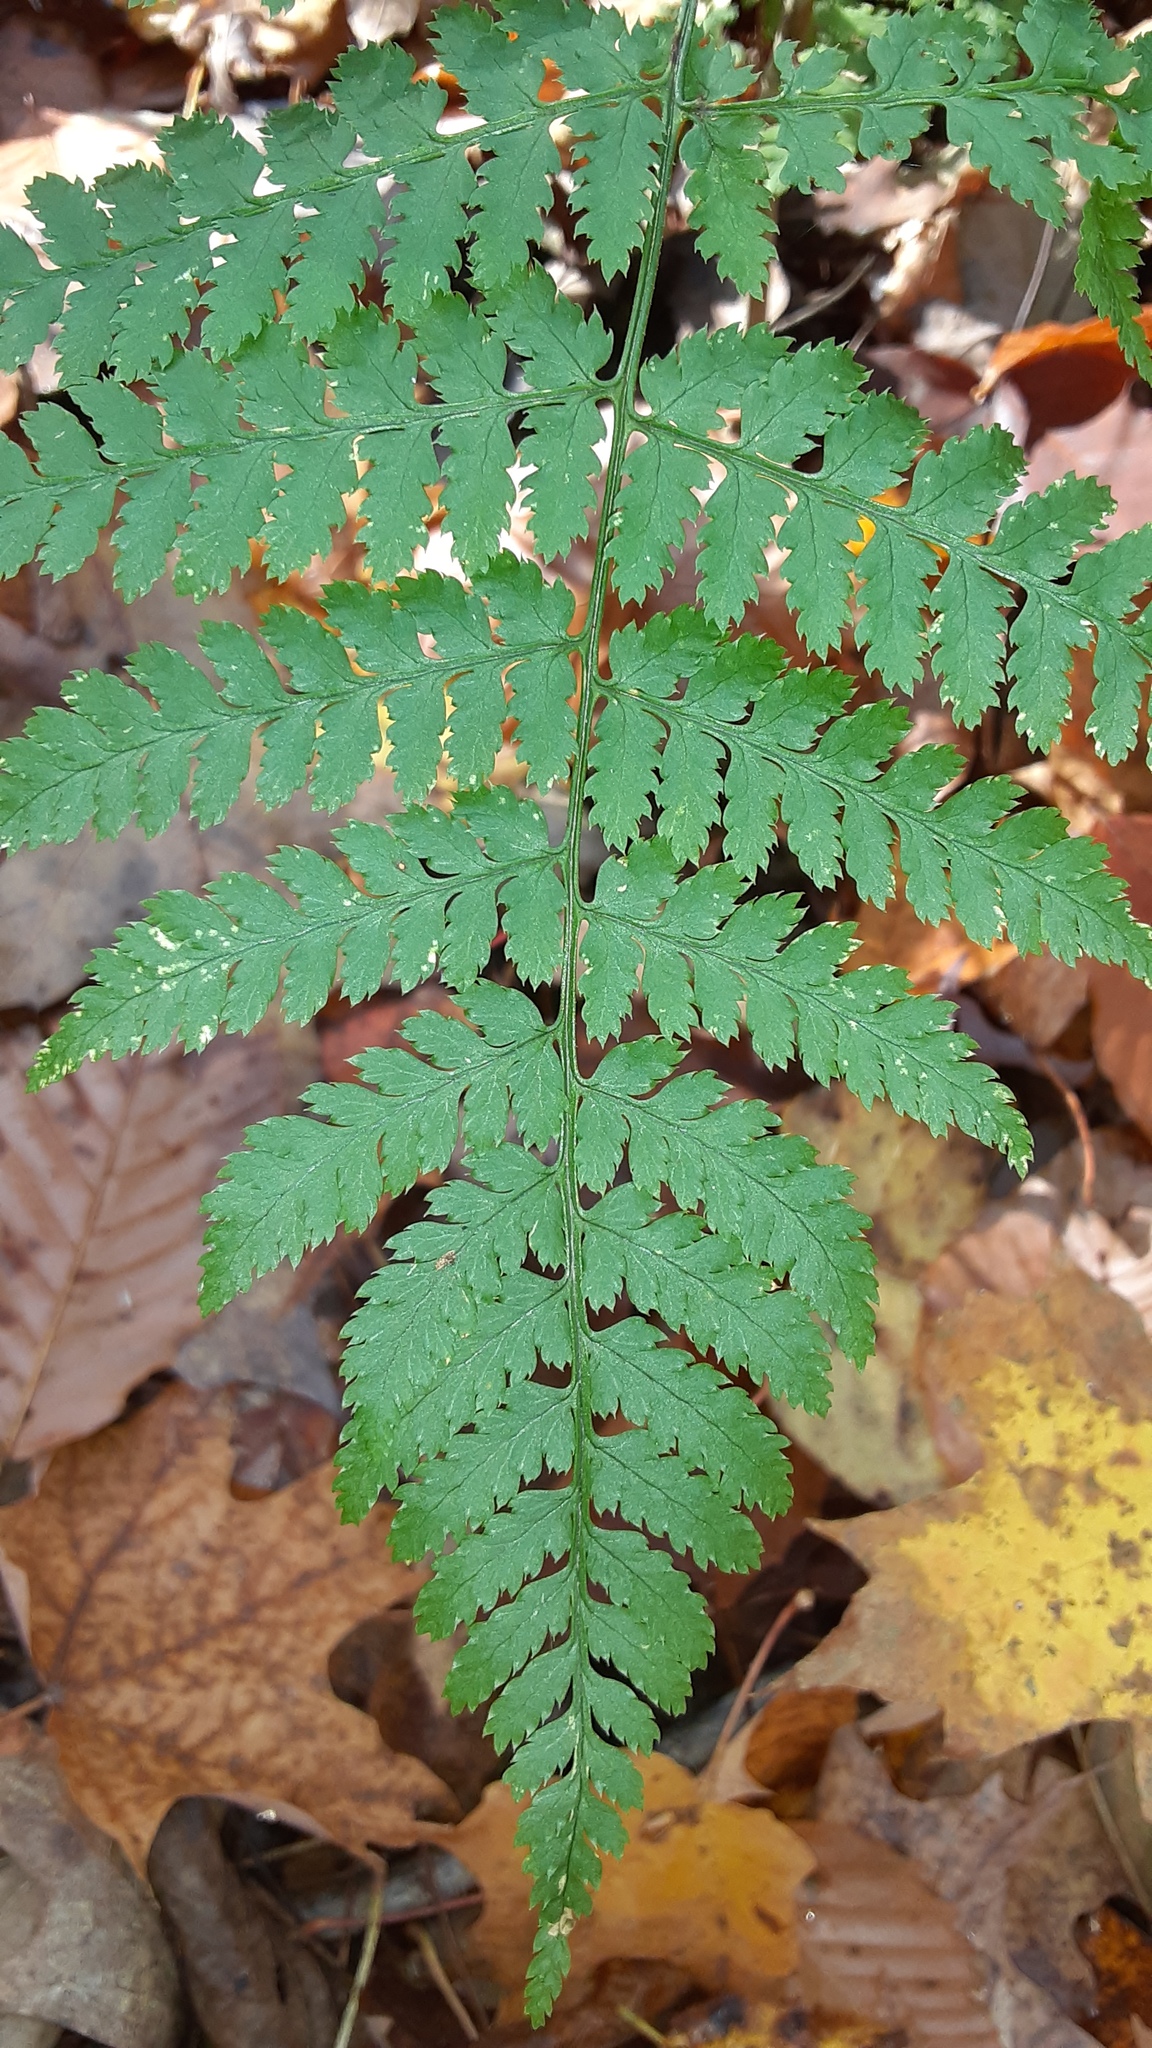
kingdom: Plantae
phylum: Tracheophyta
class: Polypodiopsida
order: Polypodiales
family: Dryopteridaceae
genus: Dryopteris
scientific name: Dryopteris intermedia
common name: Evergreen wood fern
